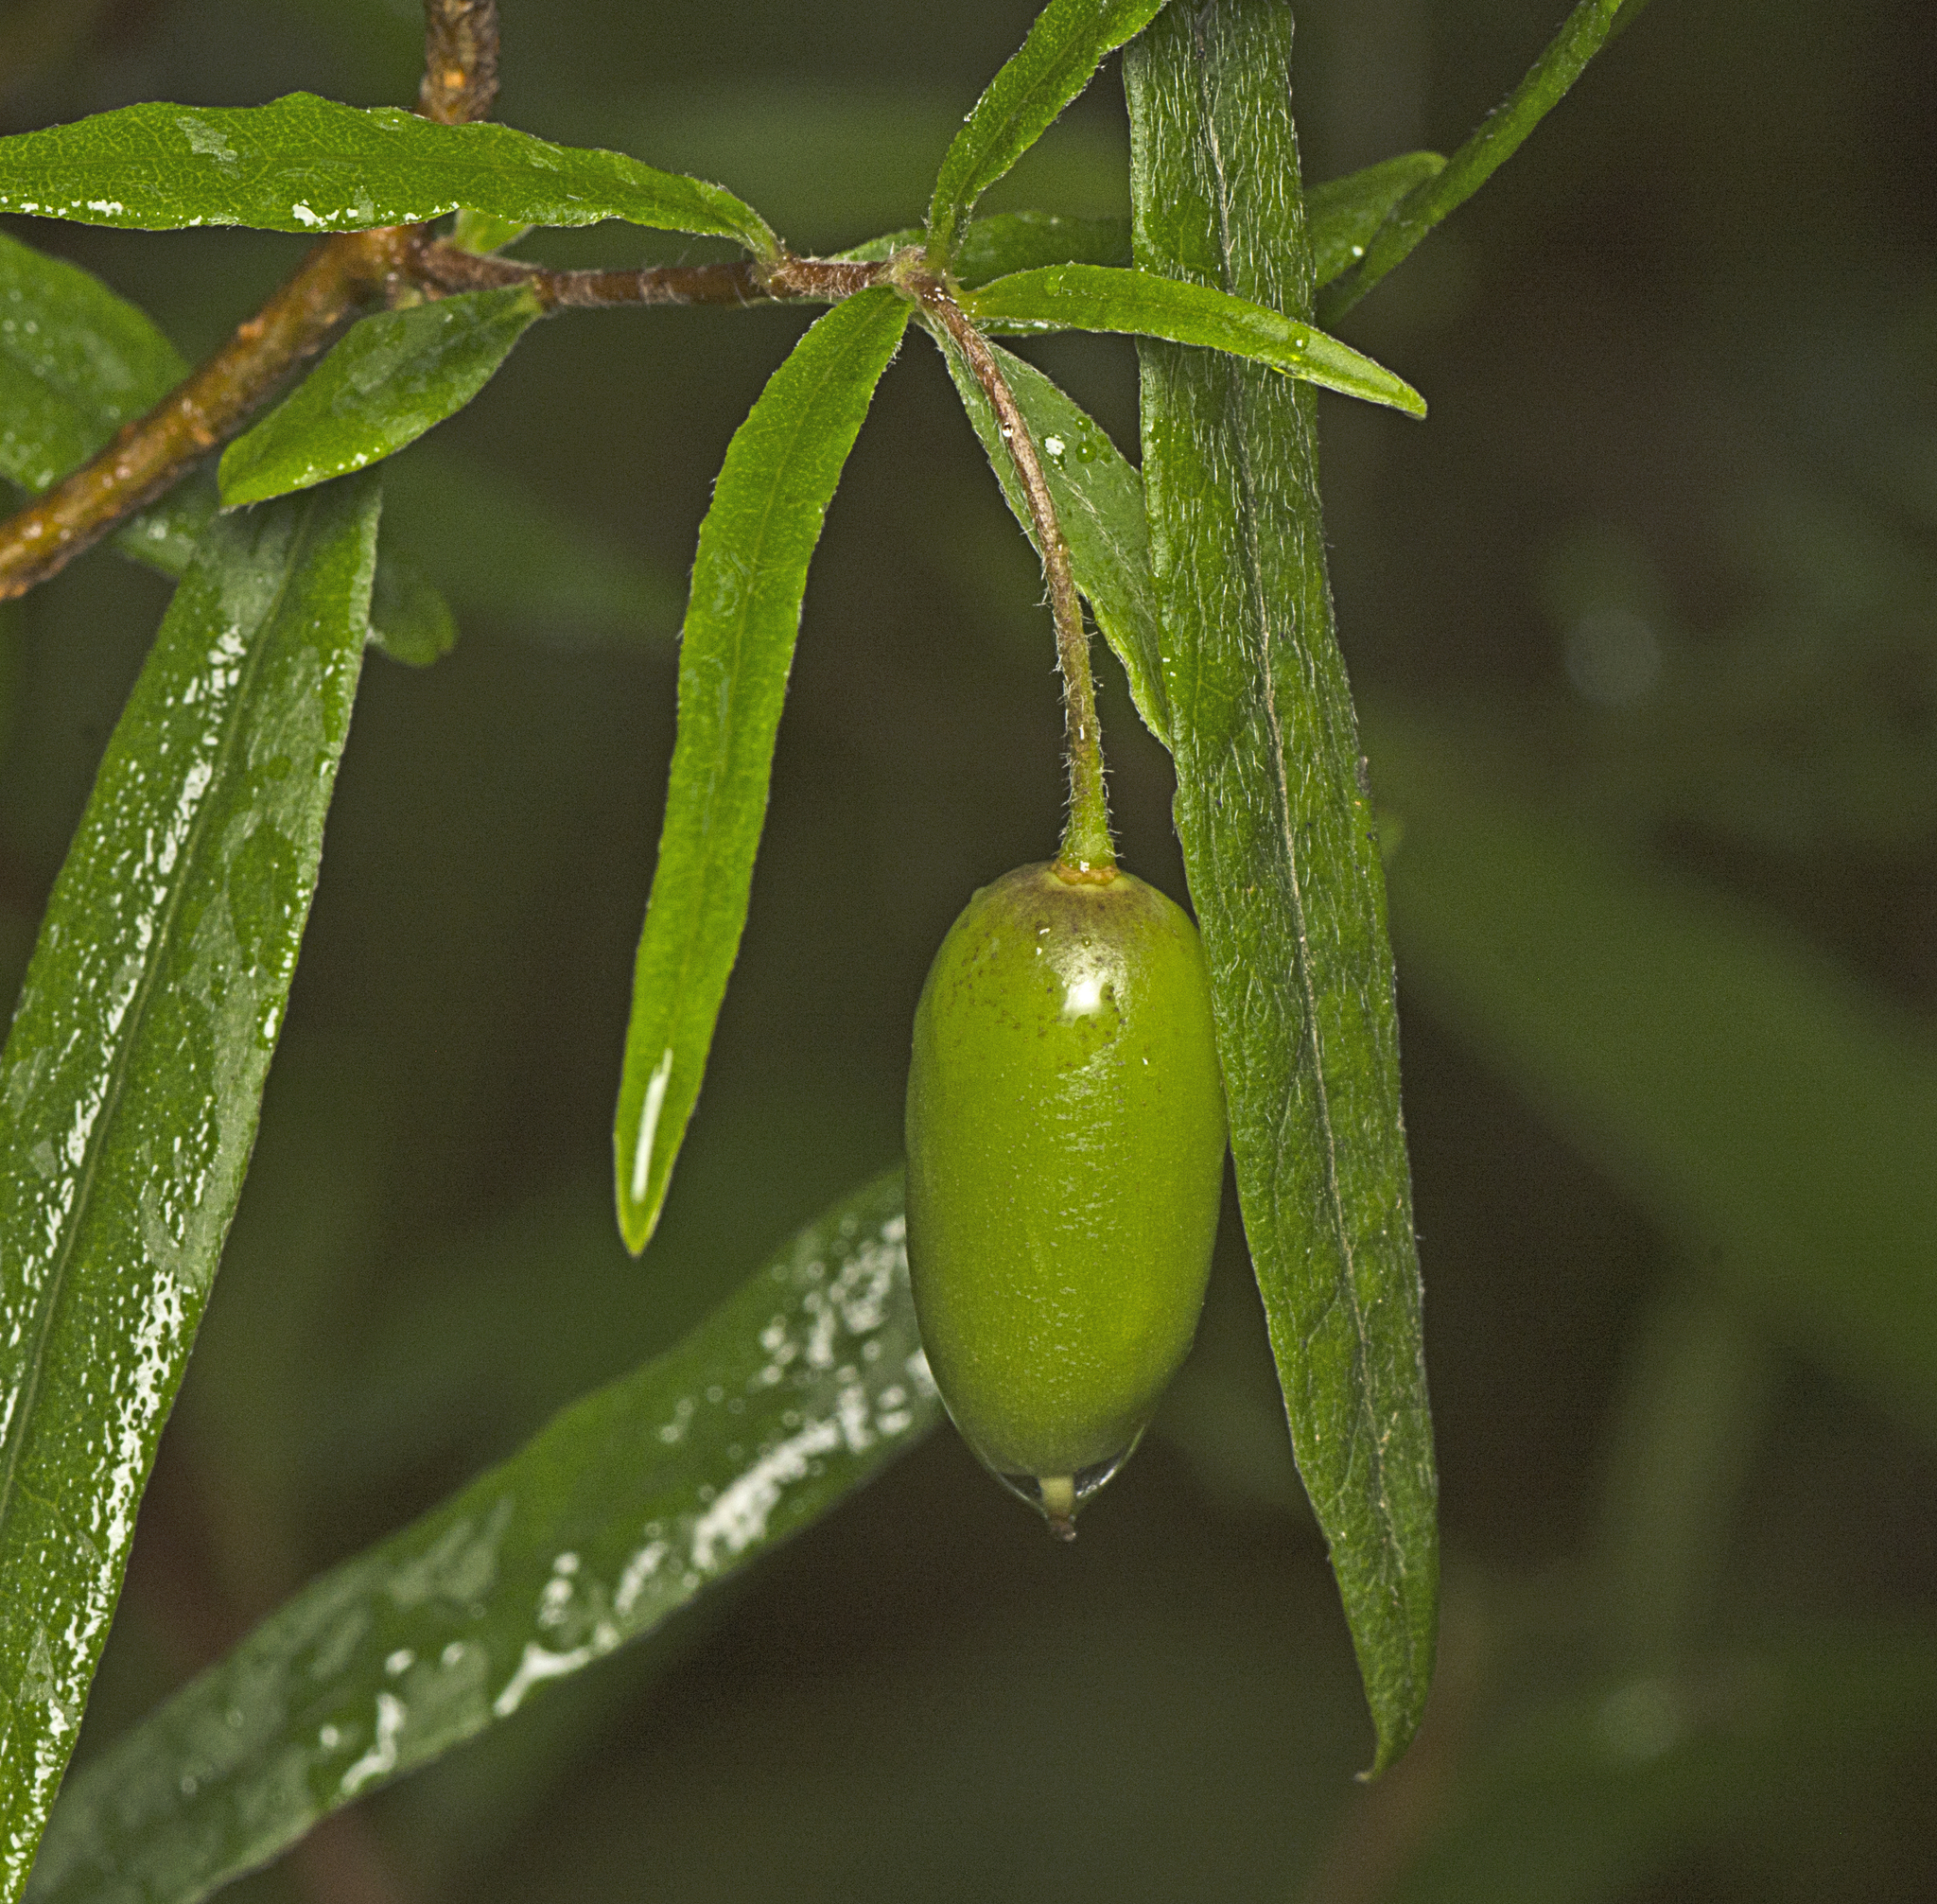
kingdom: Plantae
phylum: Tracheophyta
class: Magnoliopsida
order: Apiales
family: Pittosporaceae
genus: Billardiera
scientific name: Billardiera scandens
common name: Apple-berry
